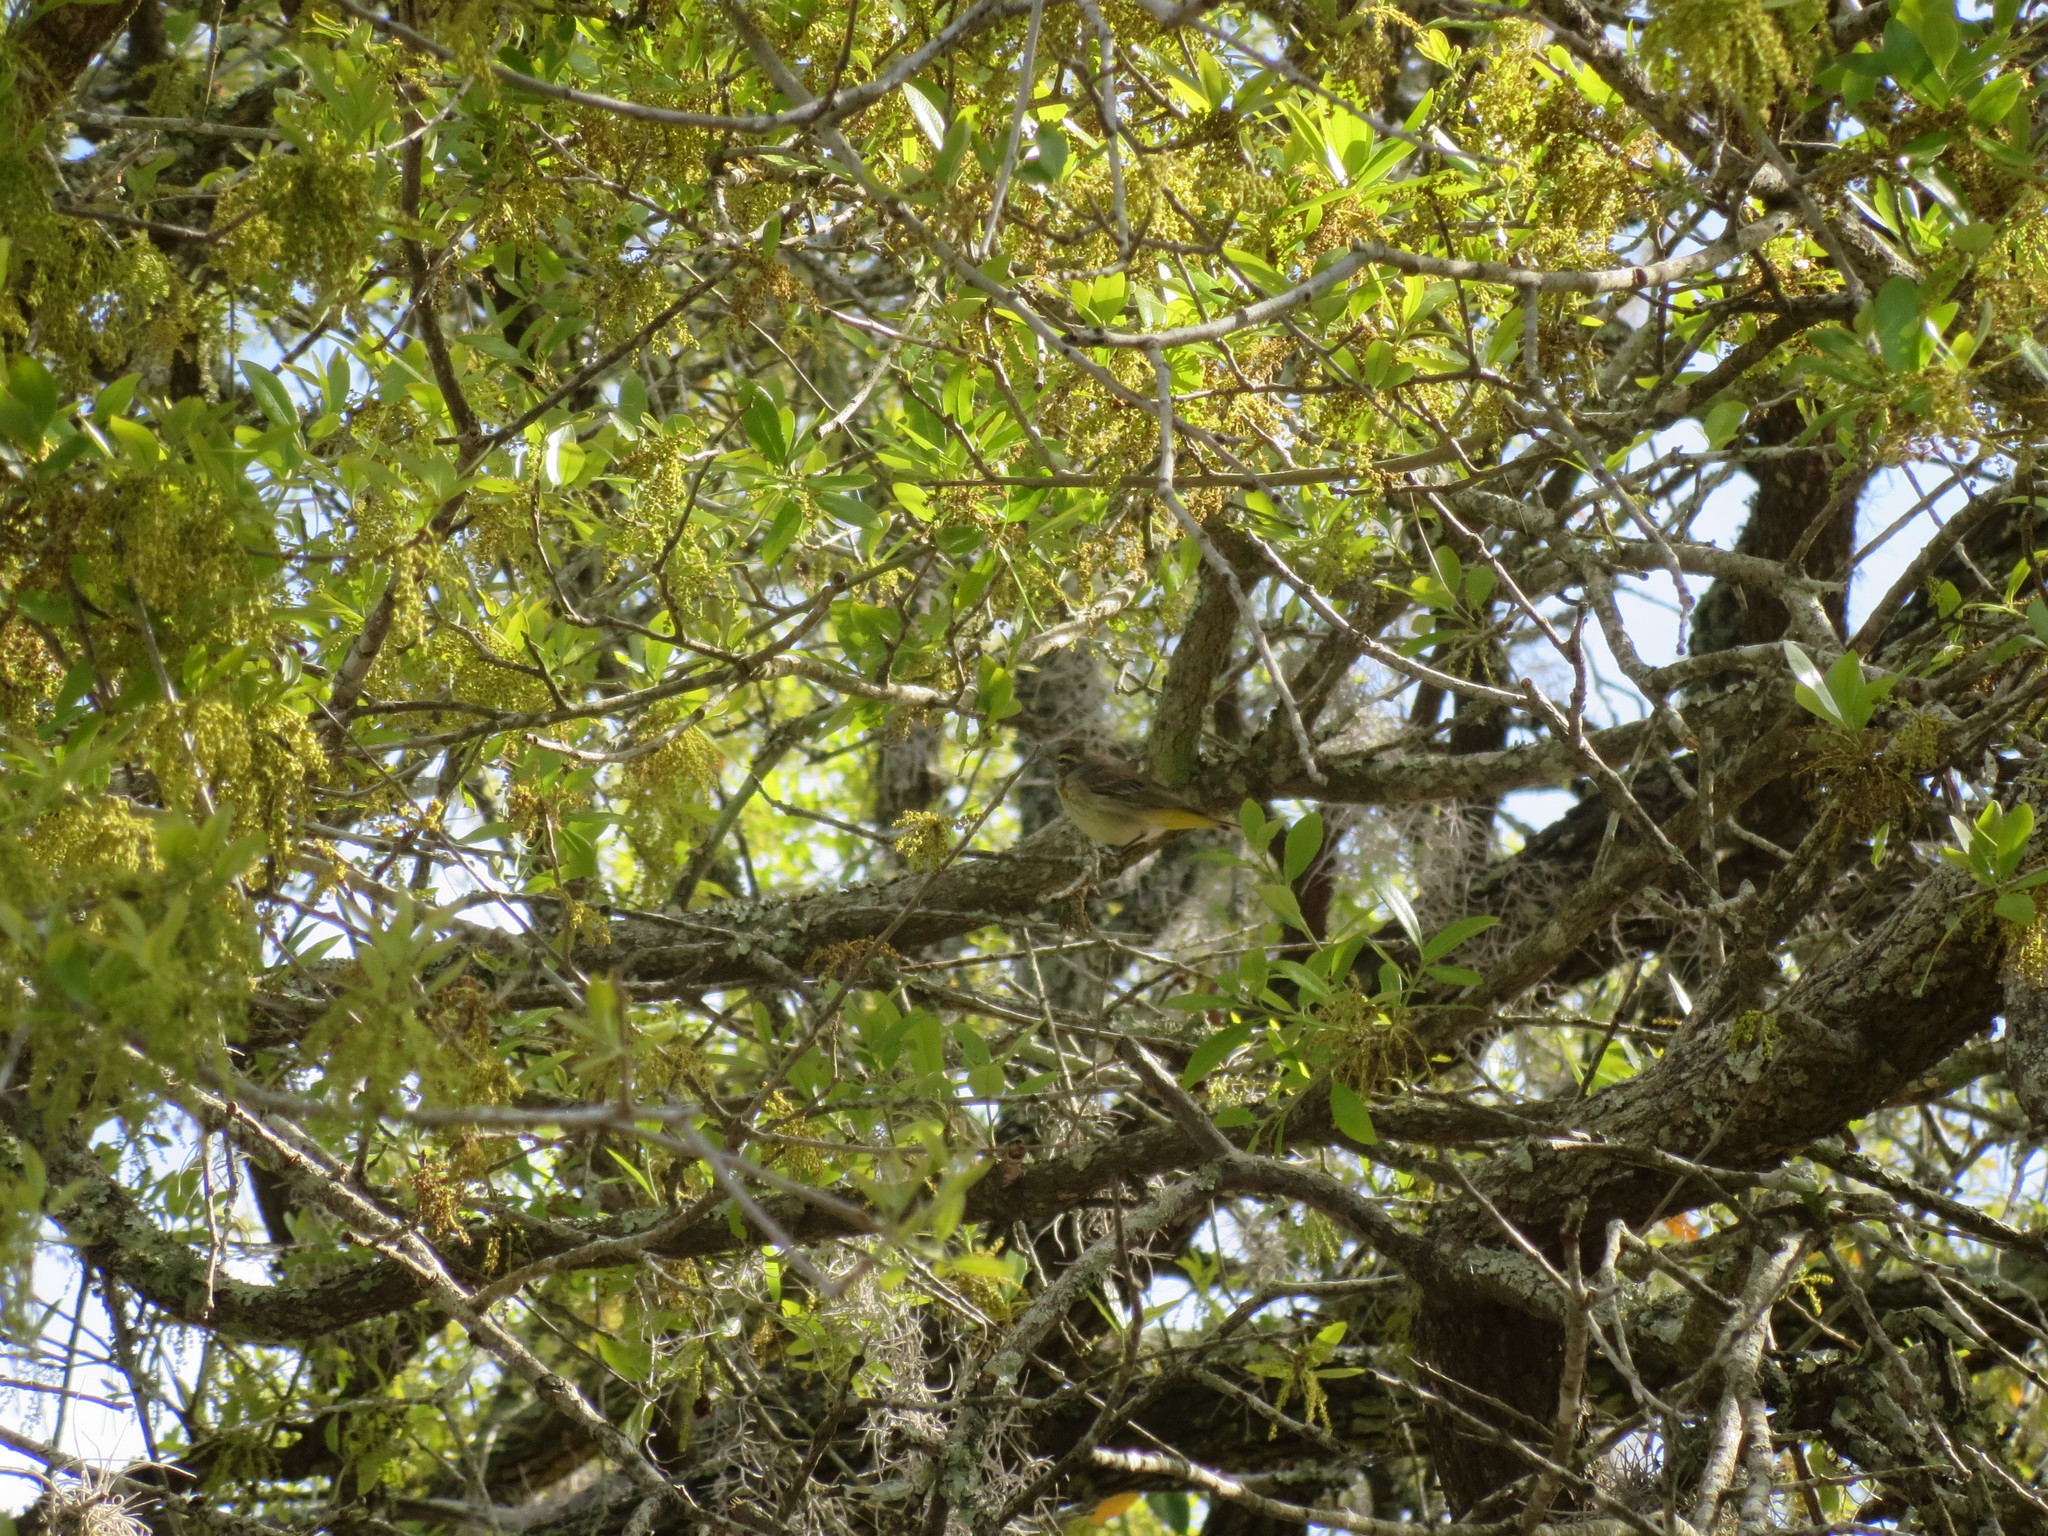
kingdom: Animalia
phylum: Chordata
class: Aves
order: Passeriformes
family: Parulidae
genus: Setophaga
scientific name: Setophaga palmarum
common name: Palm warbler
